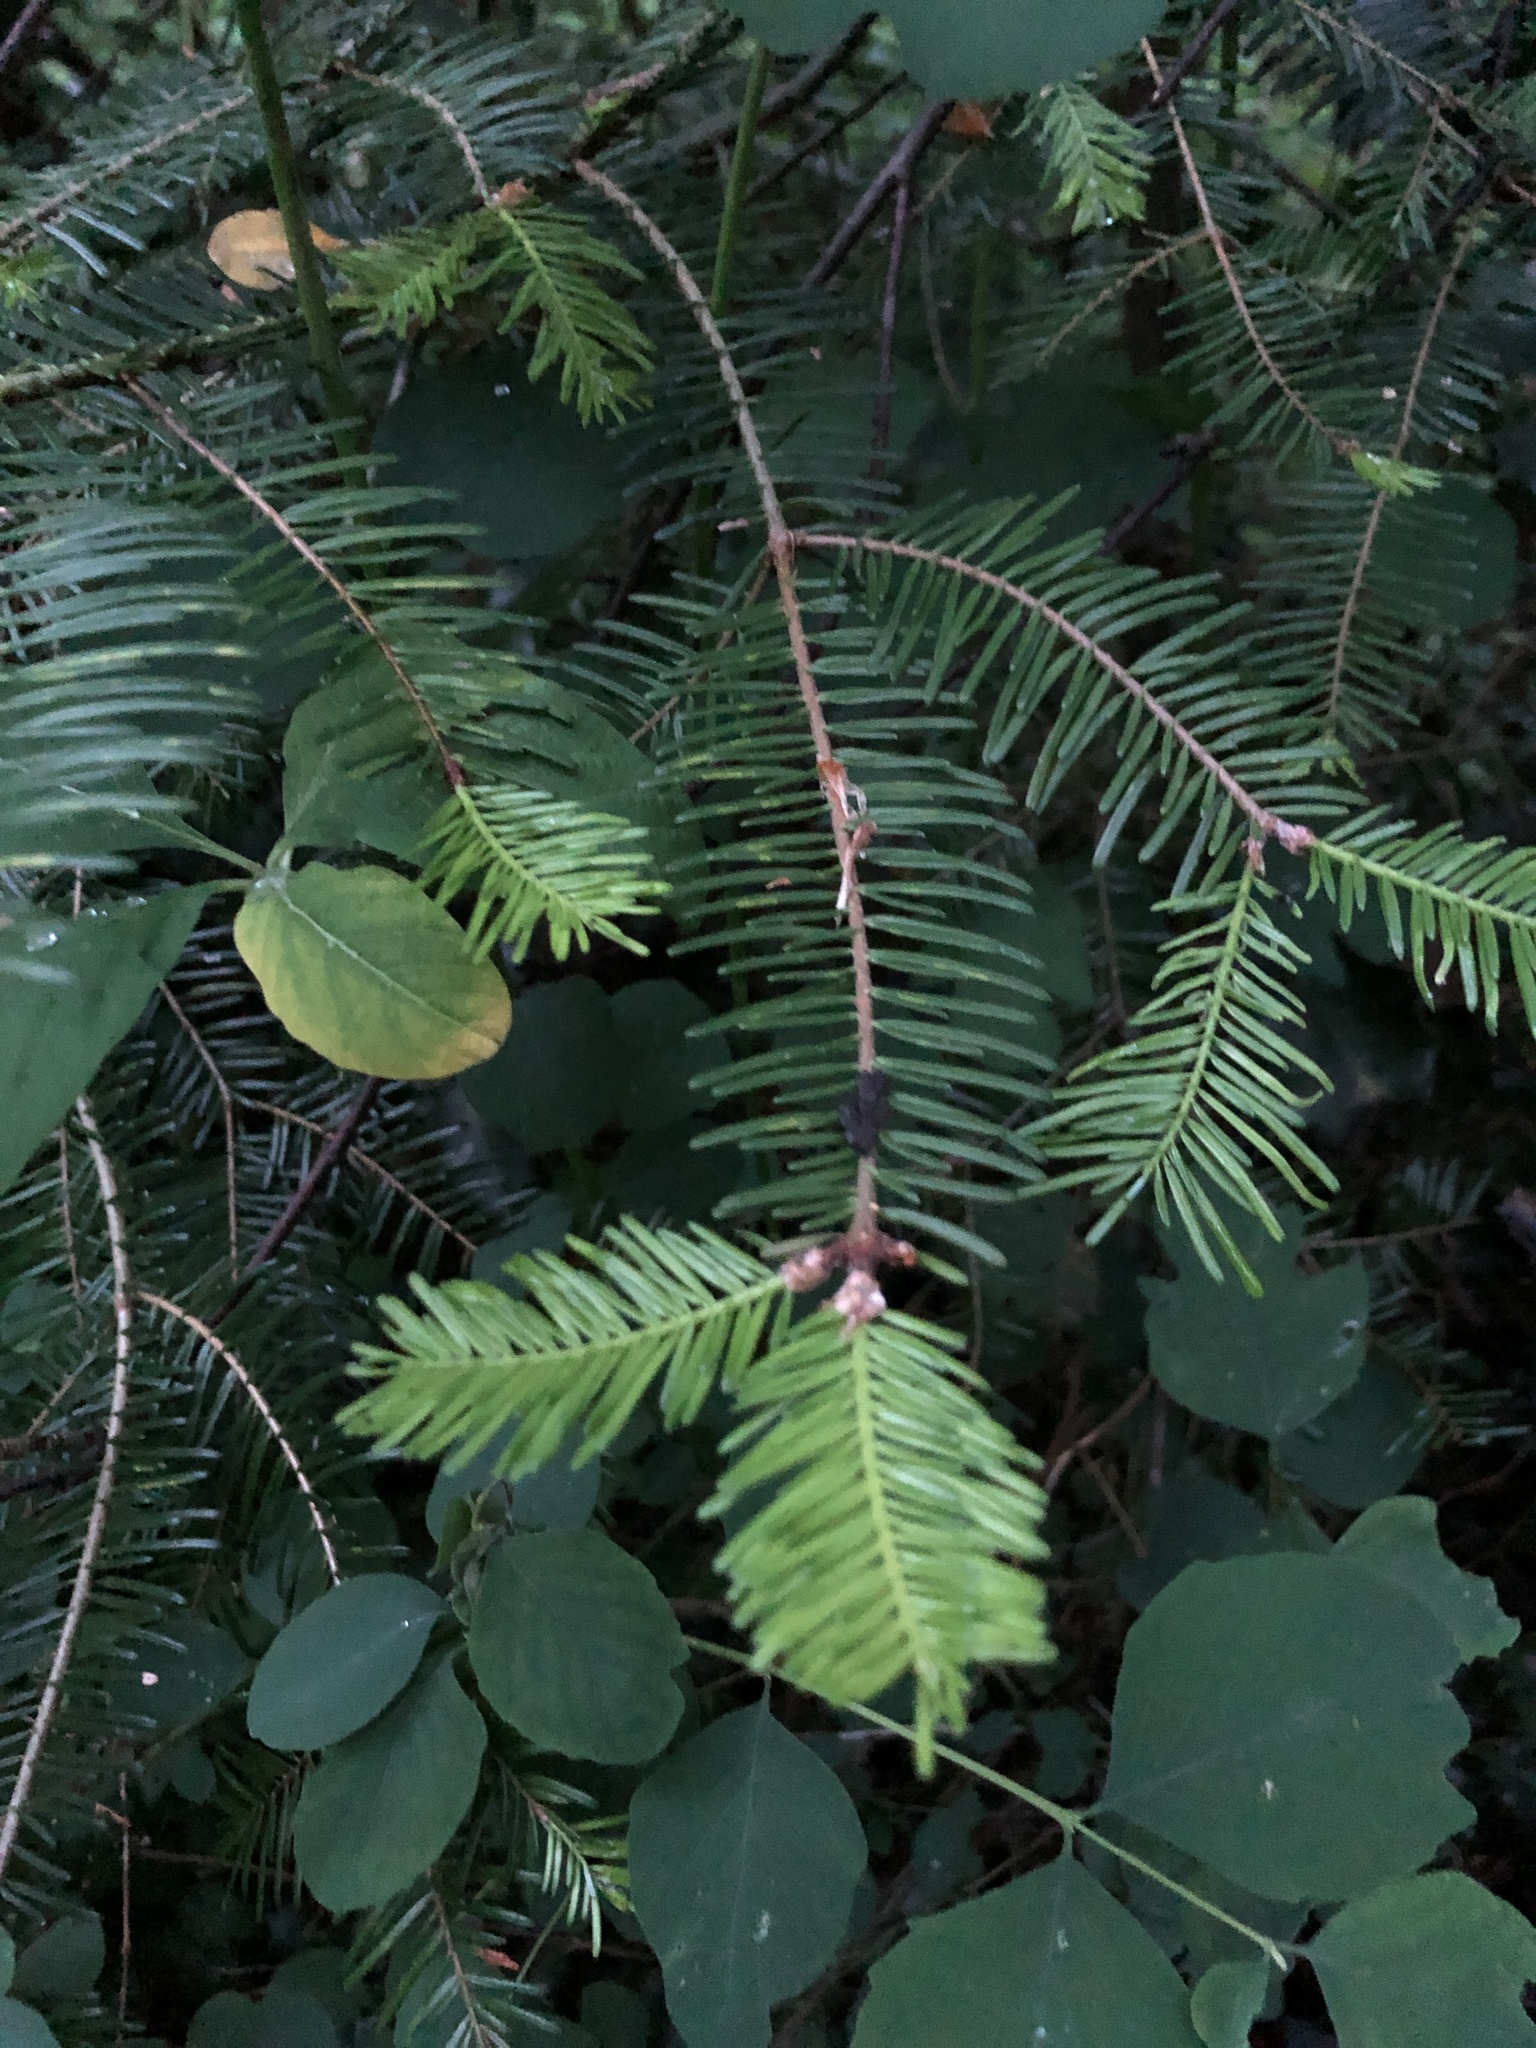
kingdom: Plantae
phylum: Tracheophyta
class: Pinopsida
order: Pinales
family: Pinaceae
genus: Abies
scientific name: Abies grandis
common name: Giant fir
